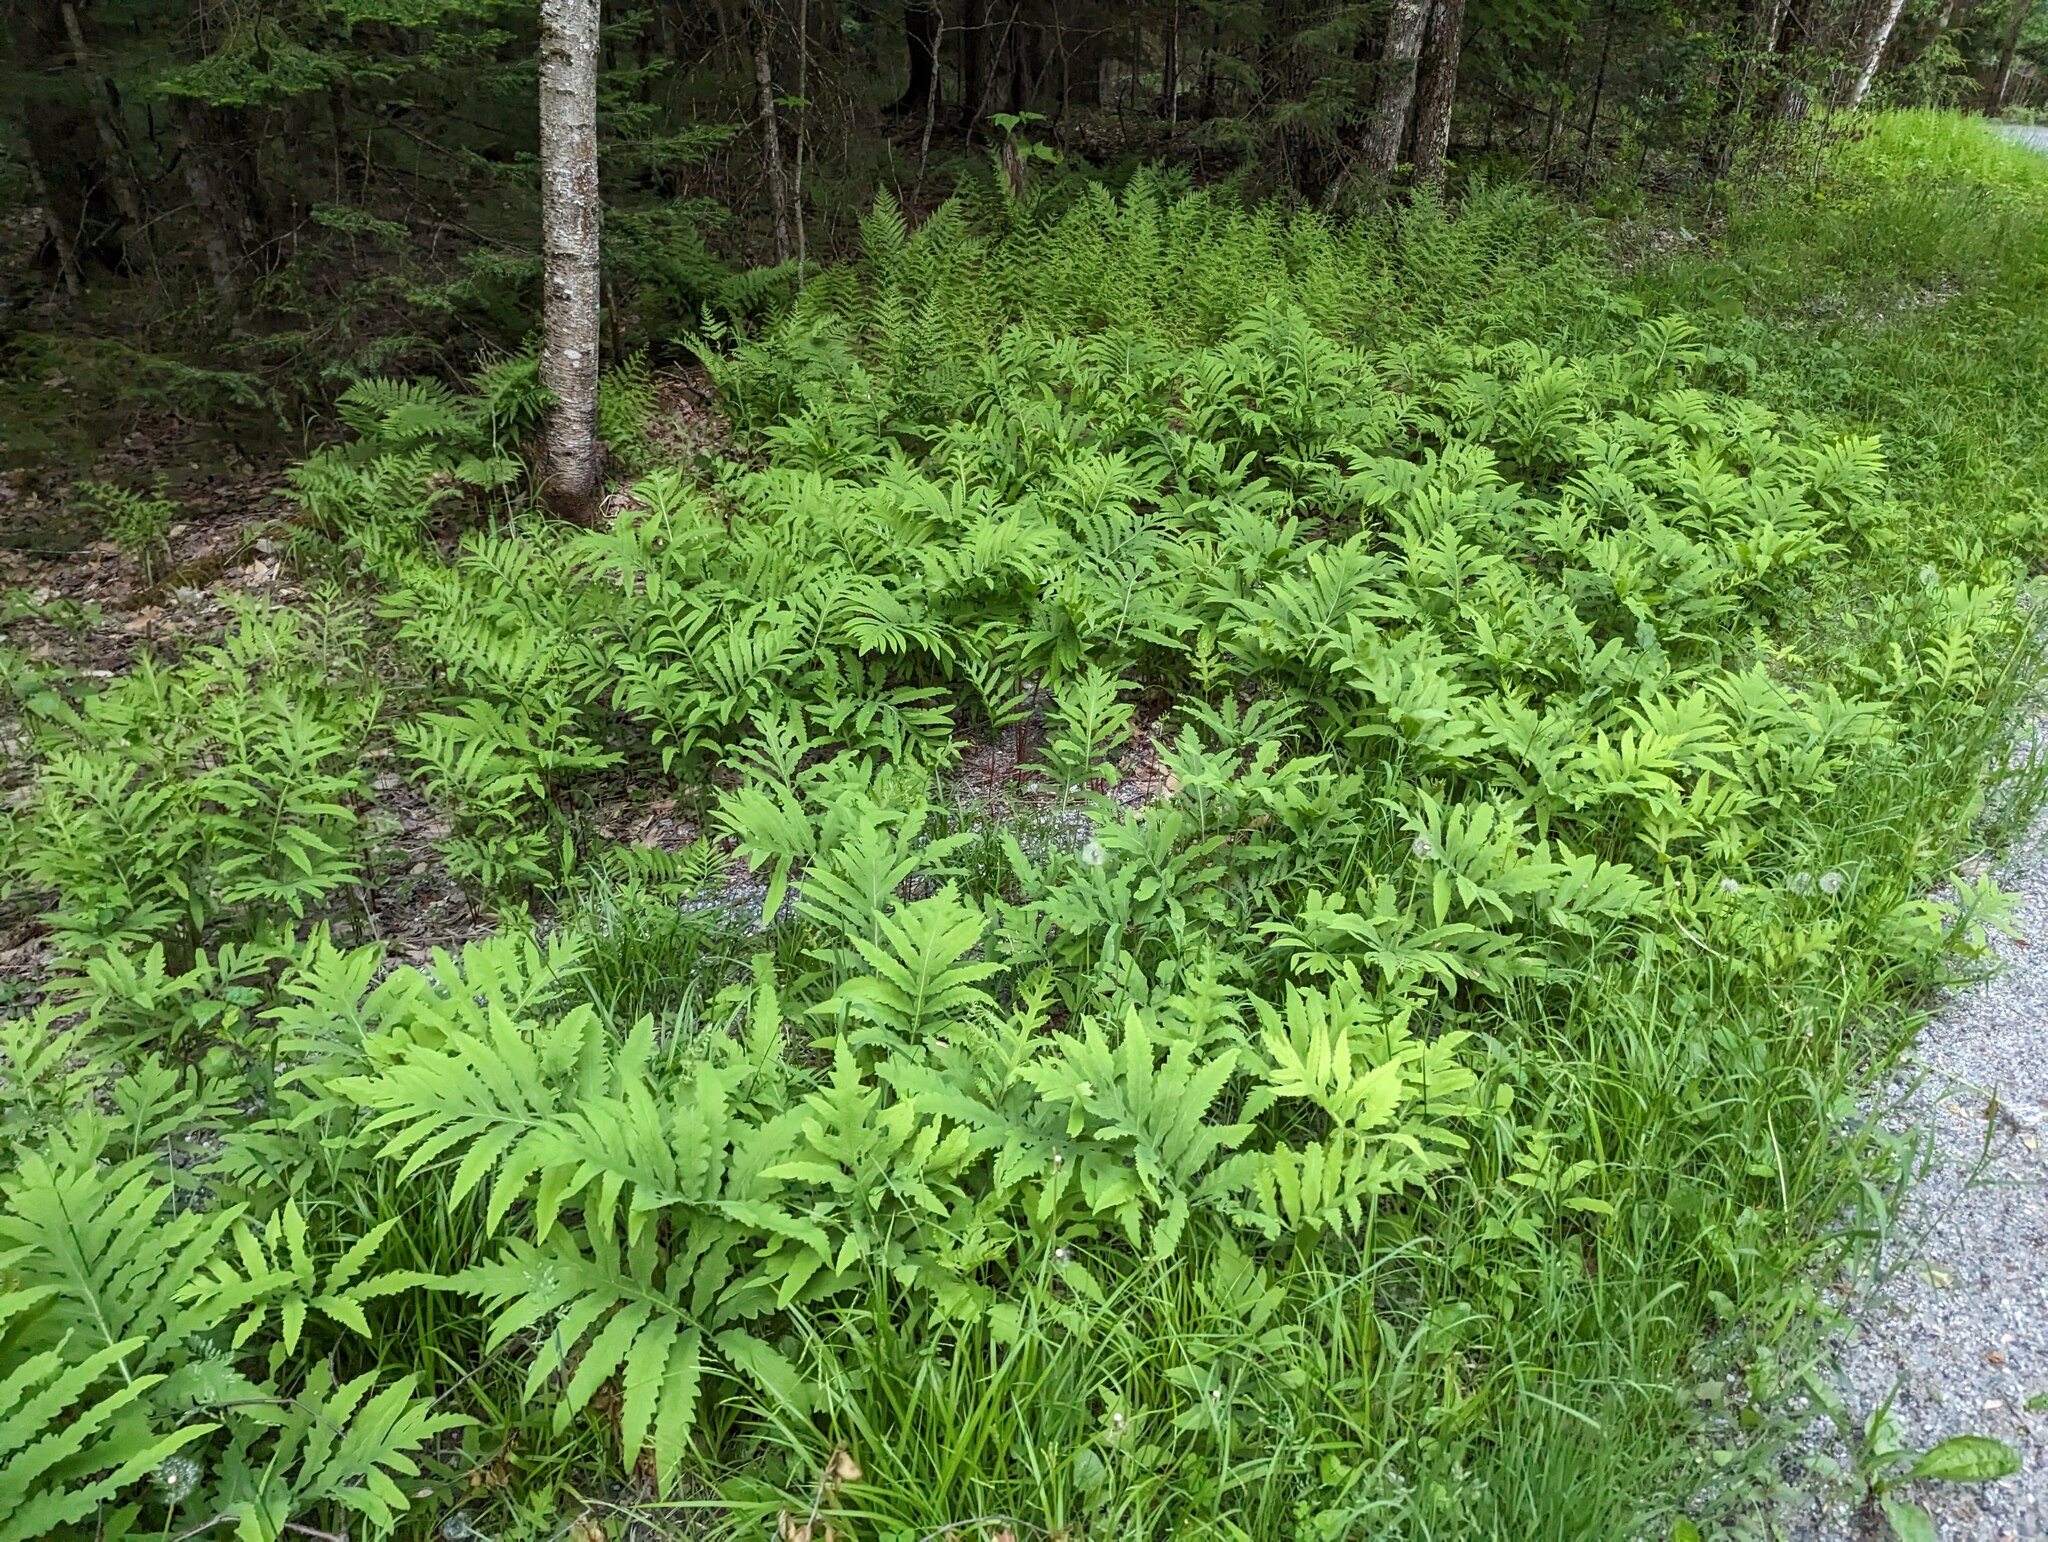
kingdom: Plantae
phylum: Tracheophyta
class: Polypodiopsida
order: Polypodiales
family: Onocleaceae
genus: Onoclea
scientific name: Onoclea sensibilis
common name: Sensitive fern
